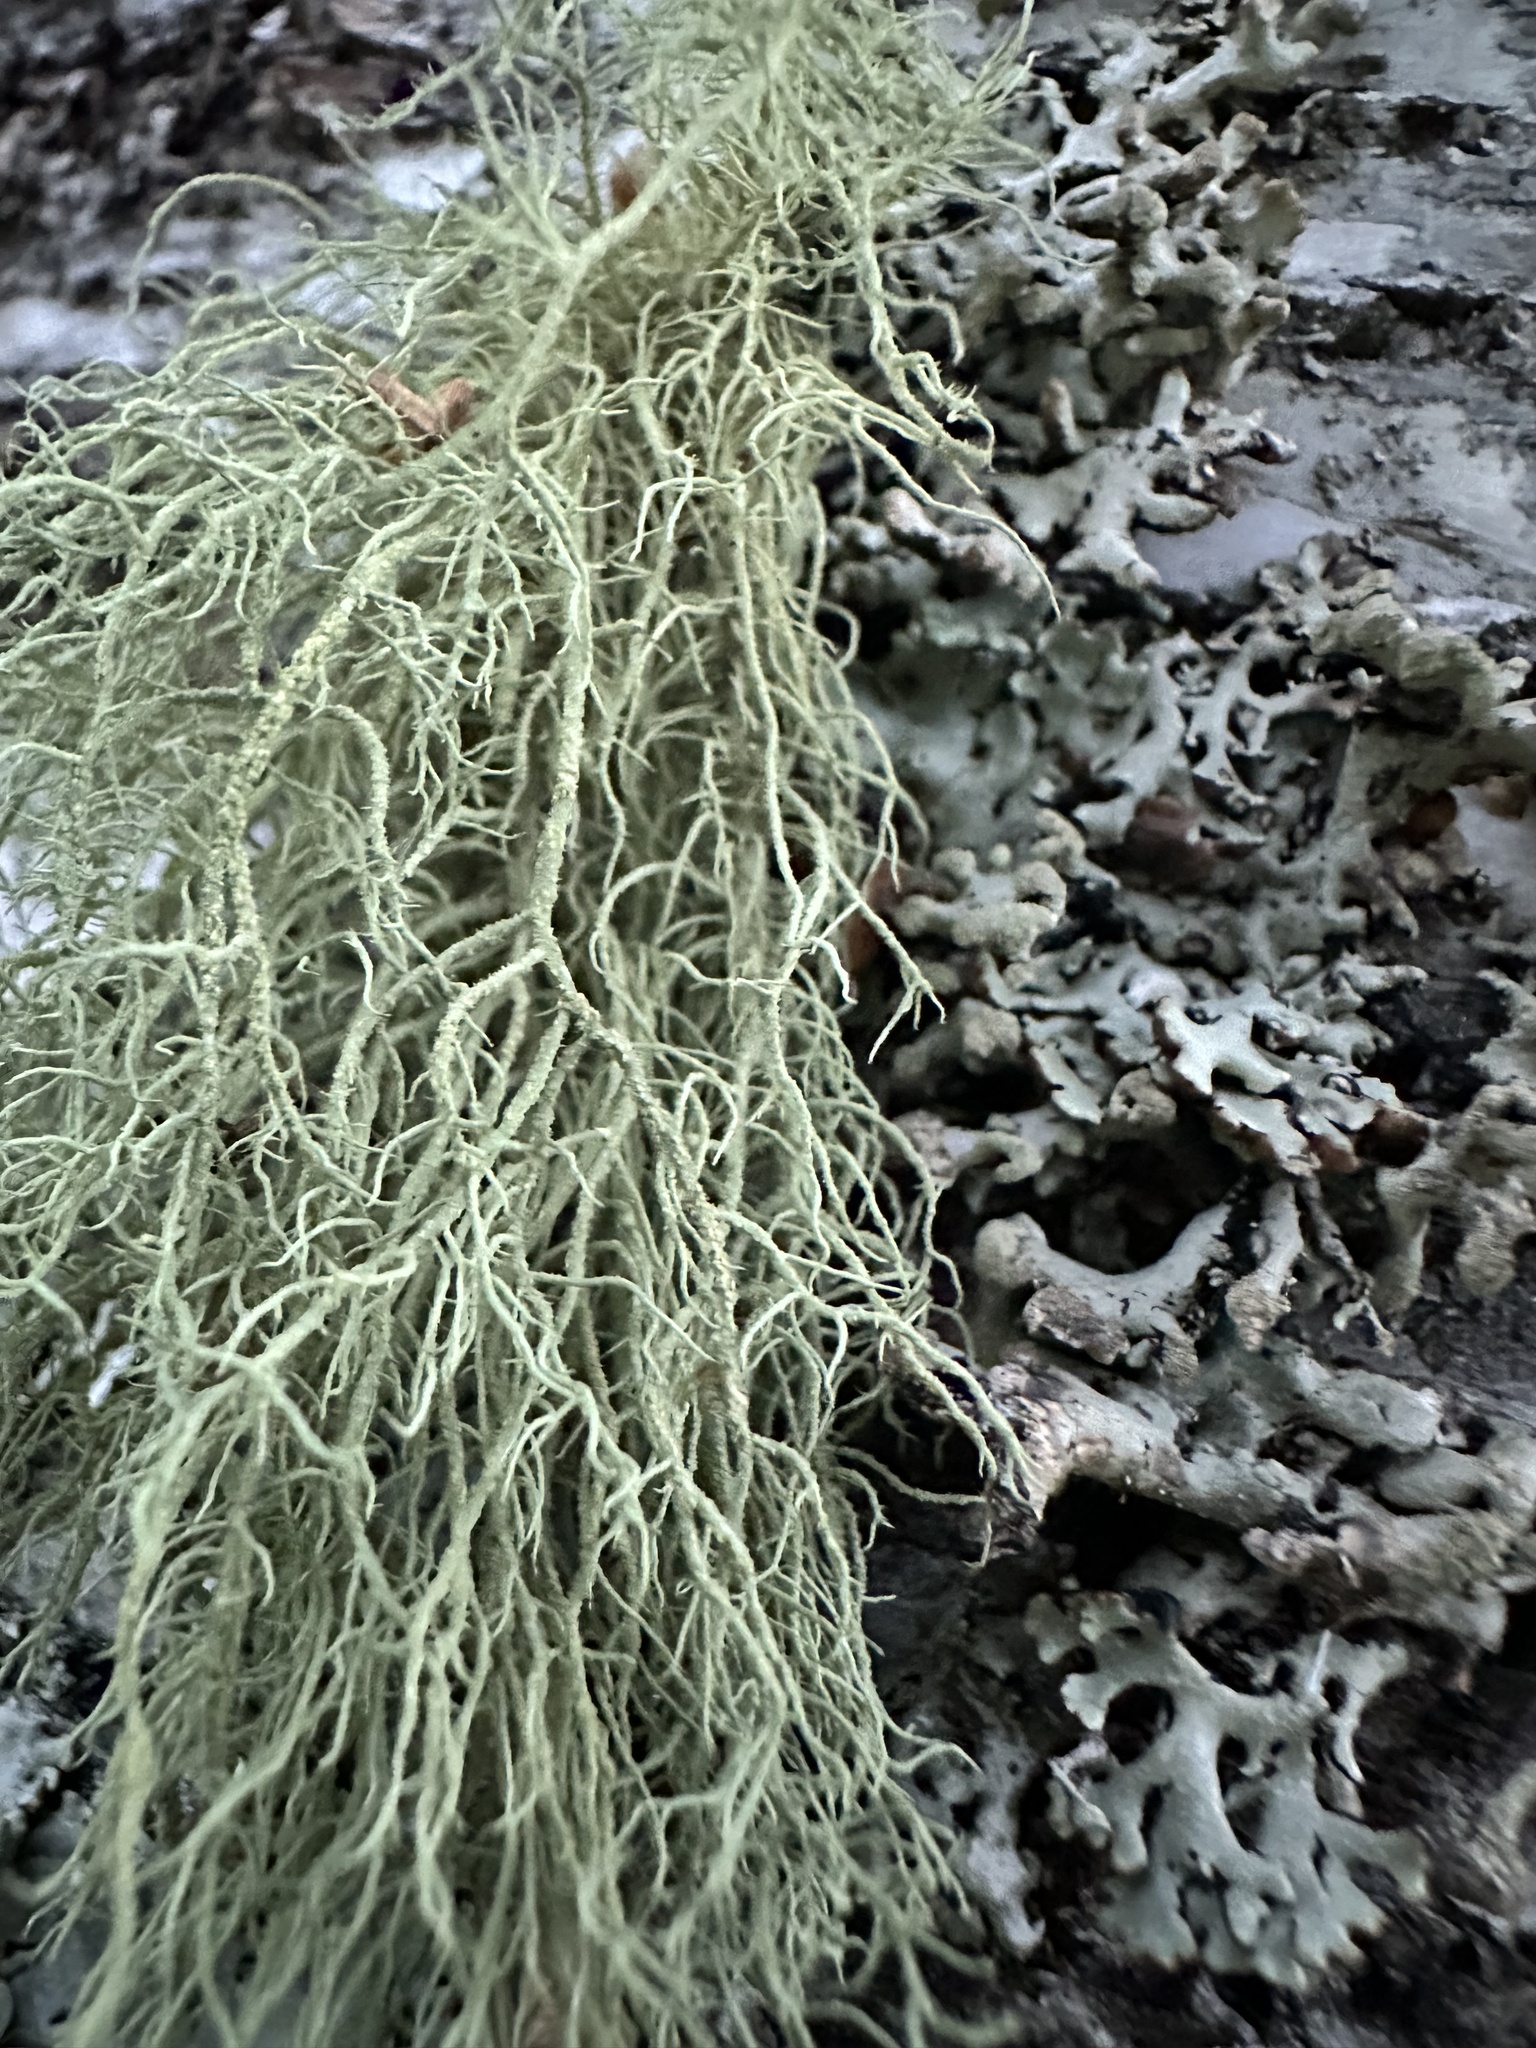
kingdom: Fungi
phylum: Ascomycota
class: Lecanoromycetes
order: Lecanorales
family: Parmeliaceae
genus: Usnea
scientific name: Usnea hirta
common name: Bristly beard lichen
